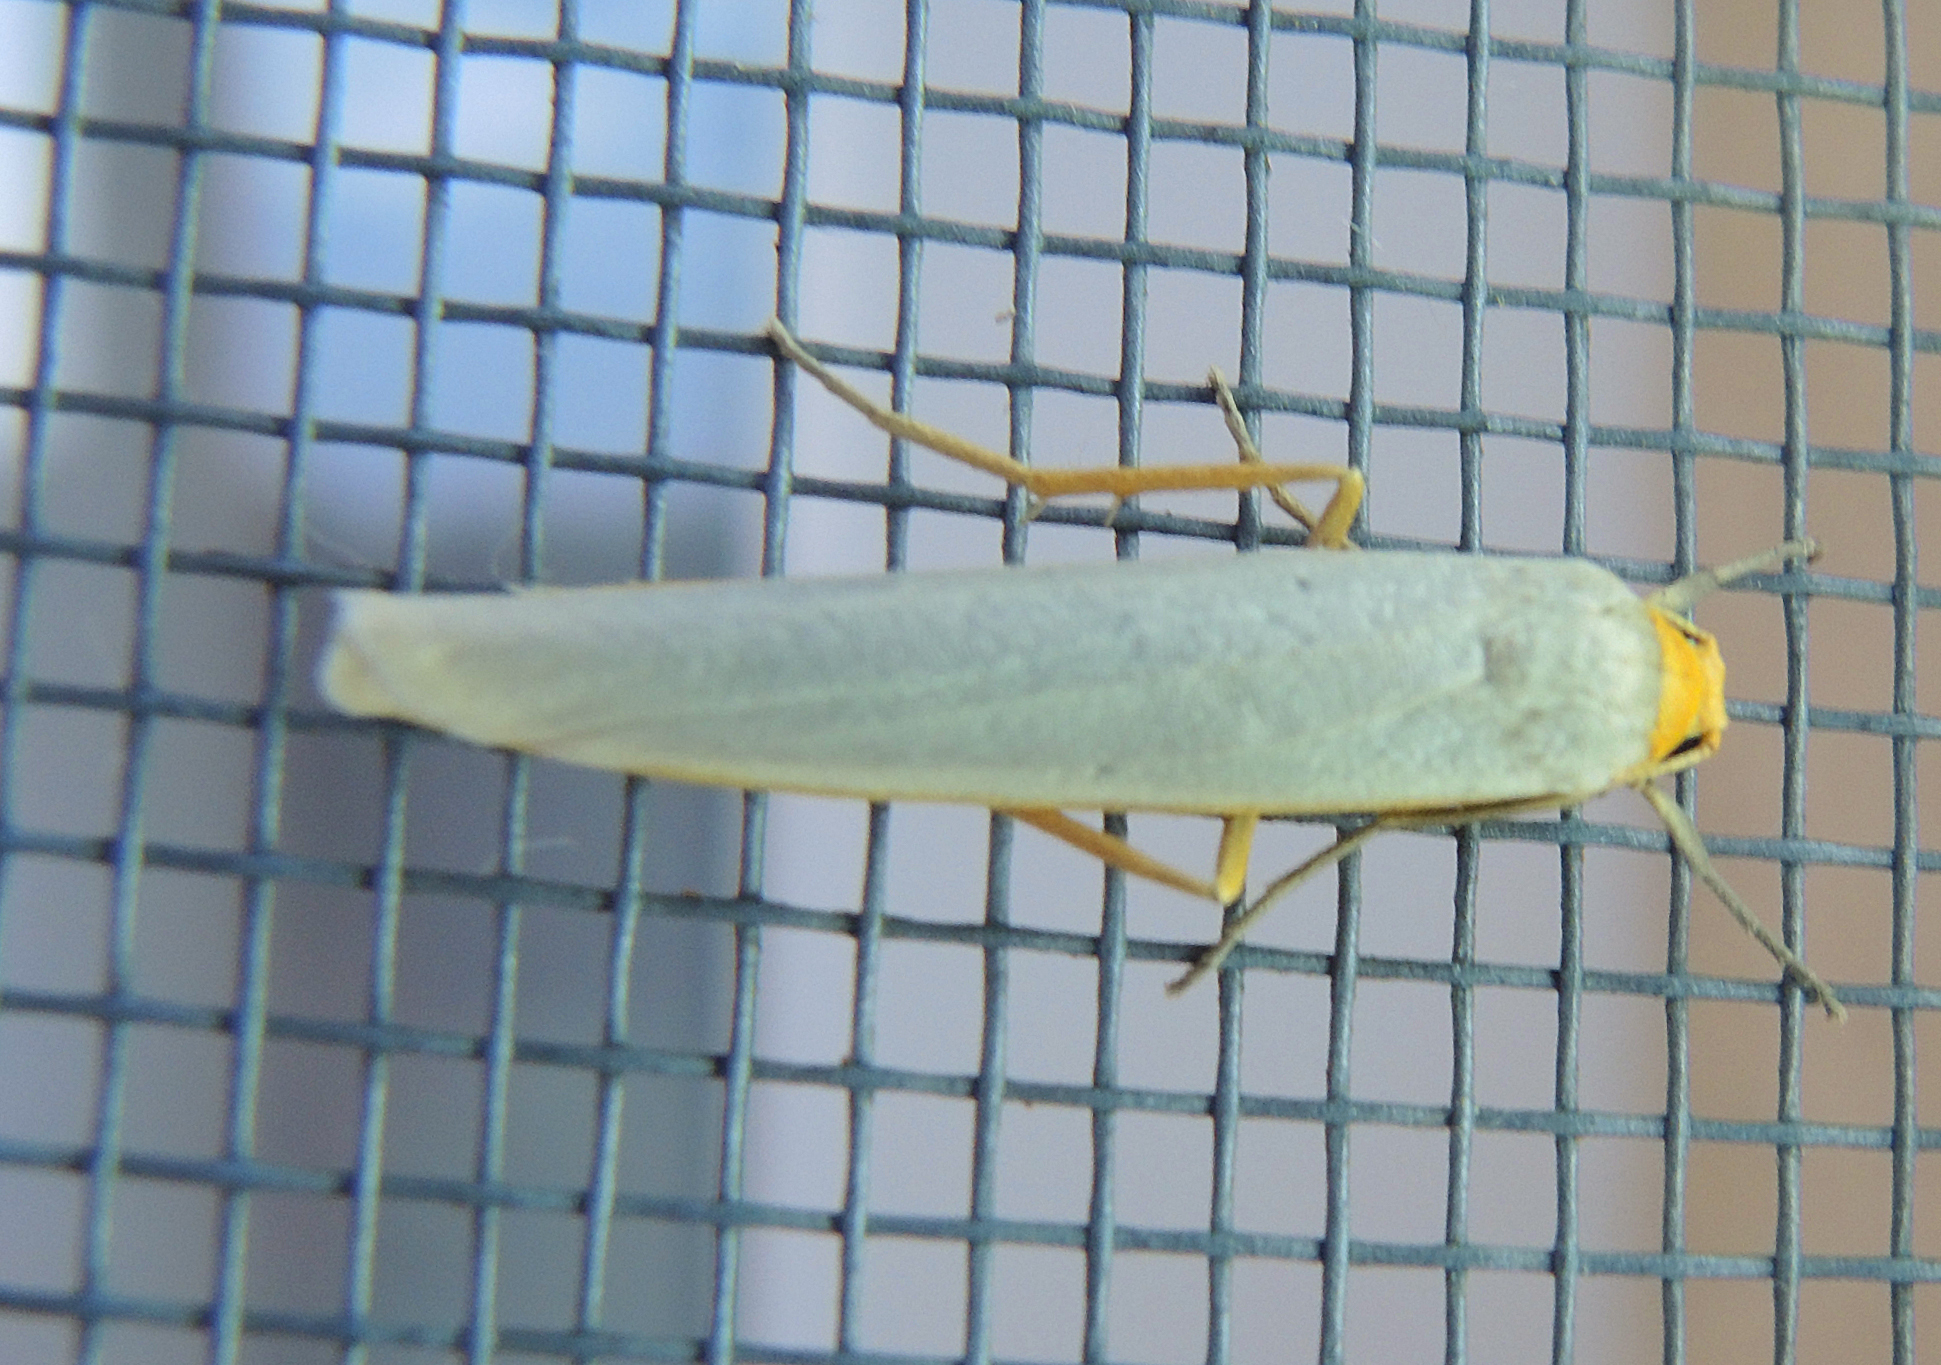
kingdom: Animalia
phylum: Arthropoda
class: Insecta
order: Lepidoptera
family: Erebidae
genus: Eilema
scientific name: Eilema caniola
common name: Hoary footman
